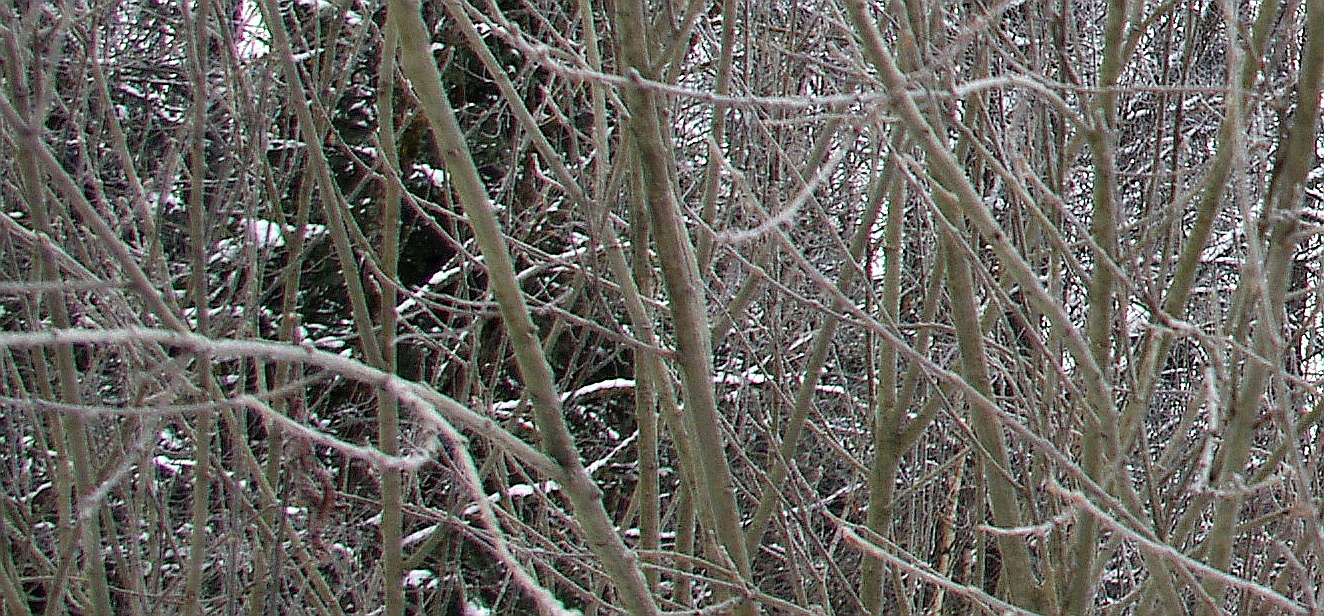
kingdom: Plantae
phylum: Tracheophyta
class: Magnoliopsida
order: Malpighiales
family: Salicaceae
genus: Salix
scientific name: Salix caprea
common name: Goat willow
